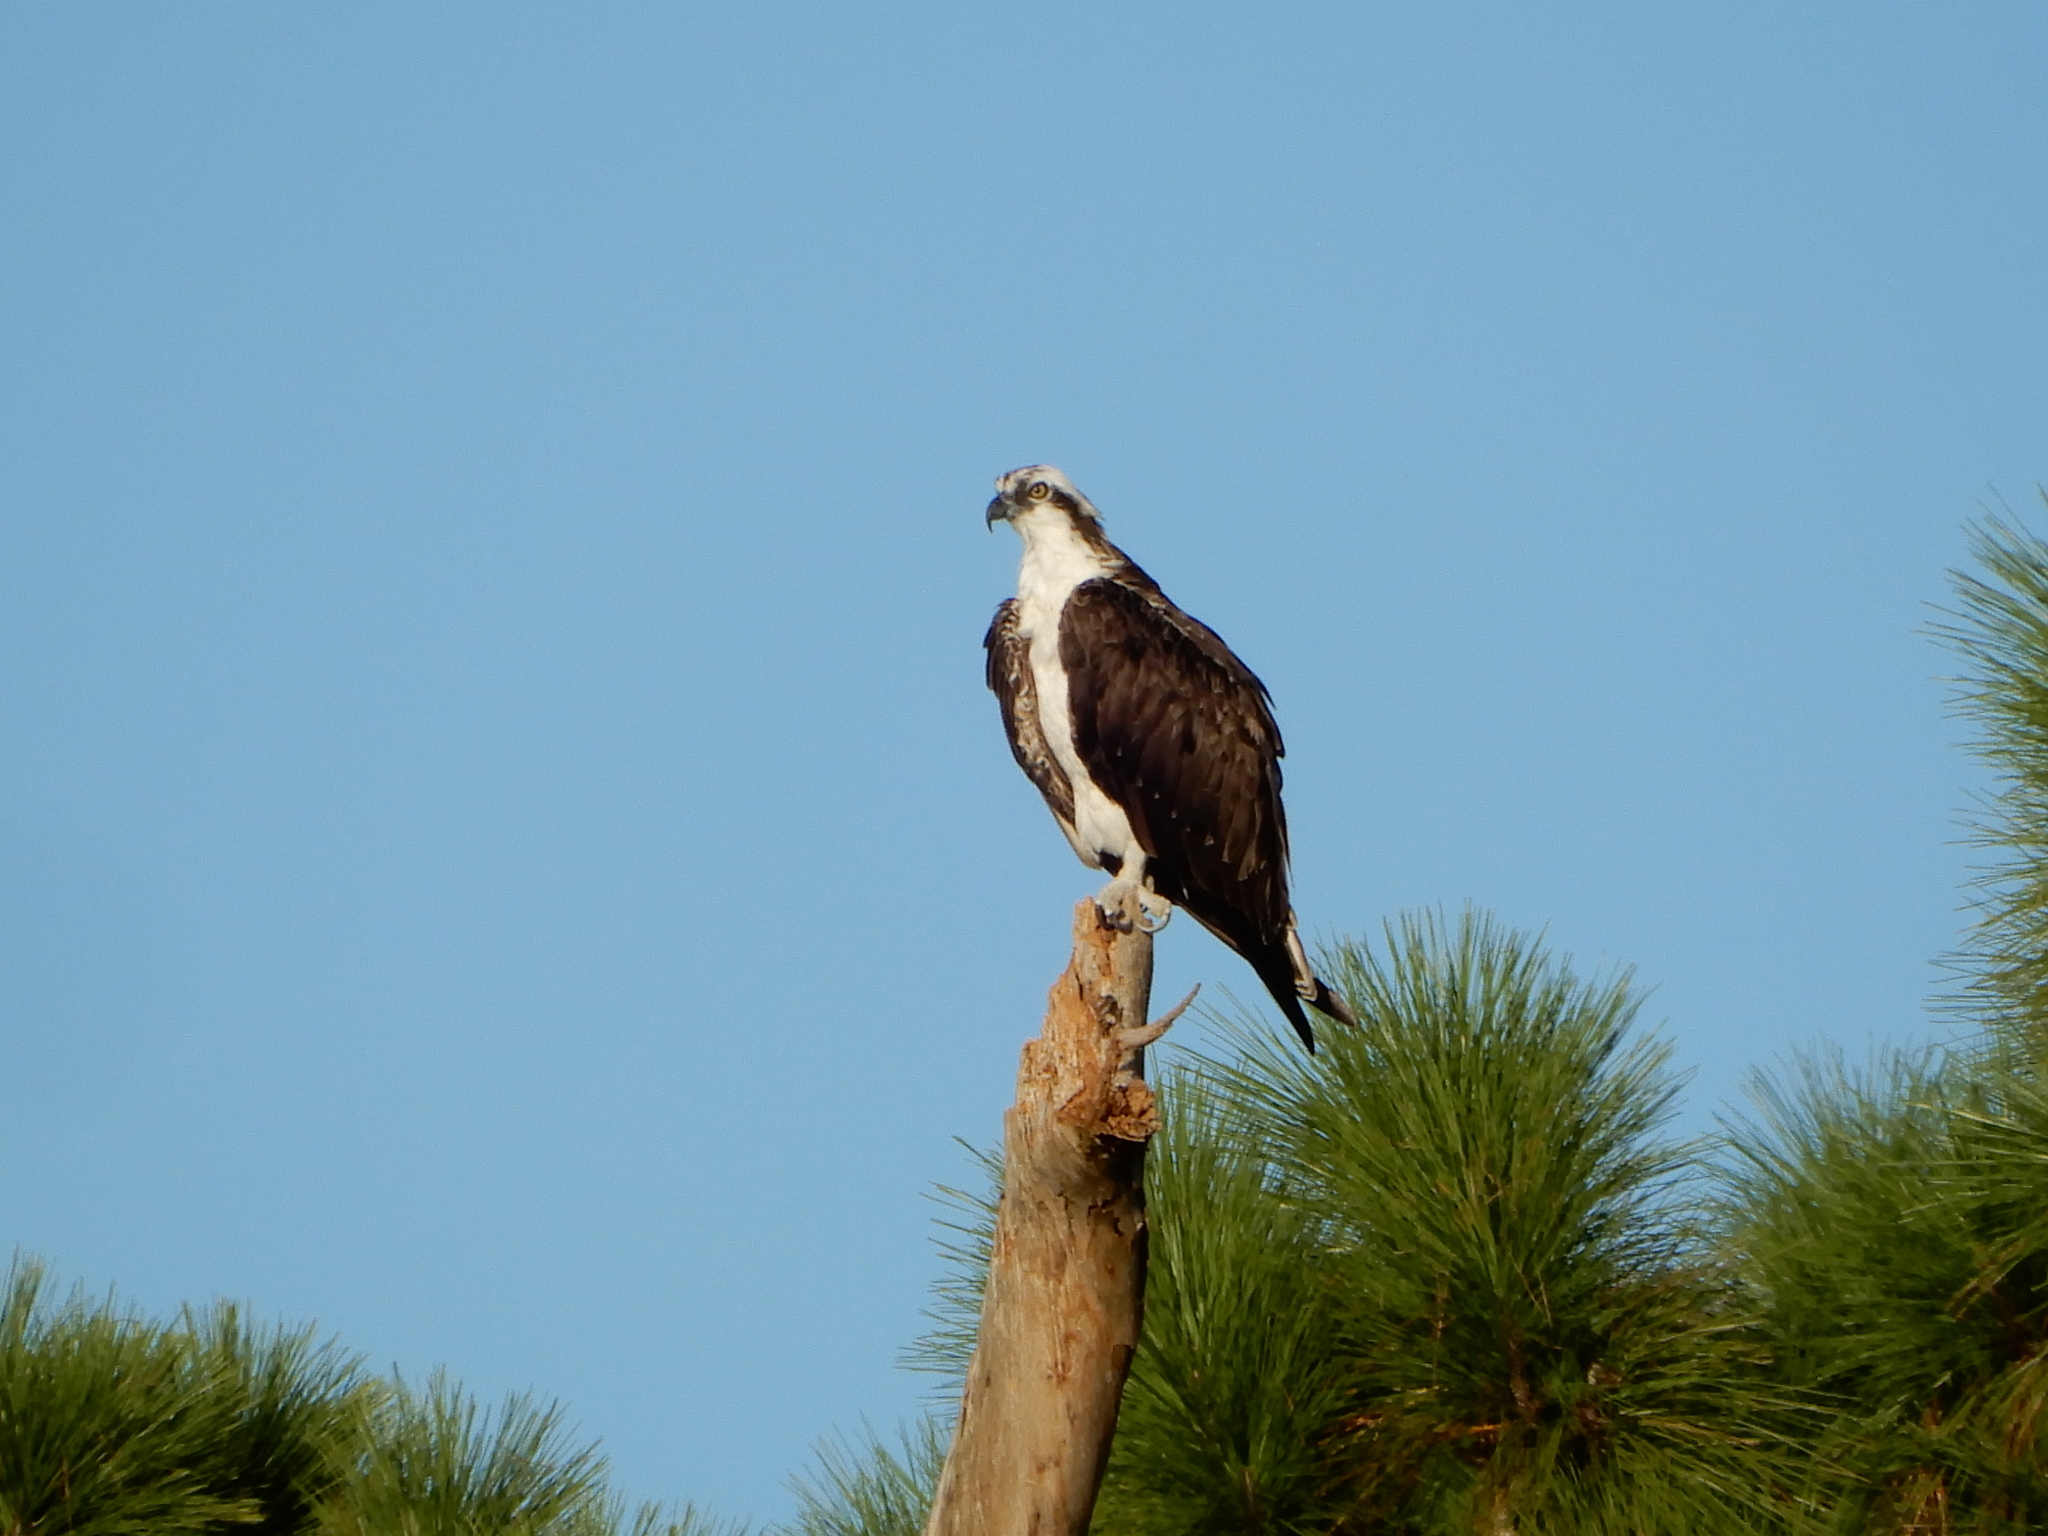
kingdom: Animalia
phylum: Chordata
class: Aves
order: Accipitriformes
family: Pandionidae
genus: Pandion
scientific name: Pandion haliaetus
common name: Osprey
